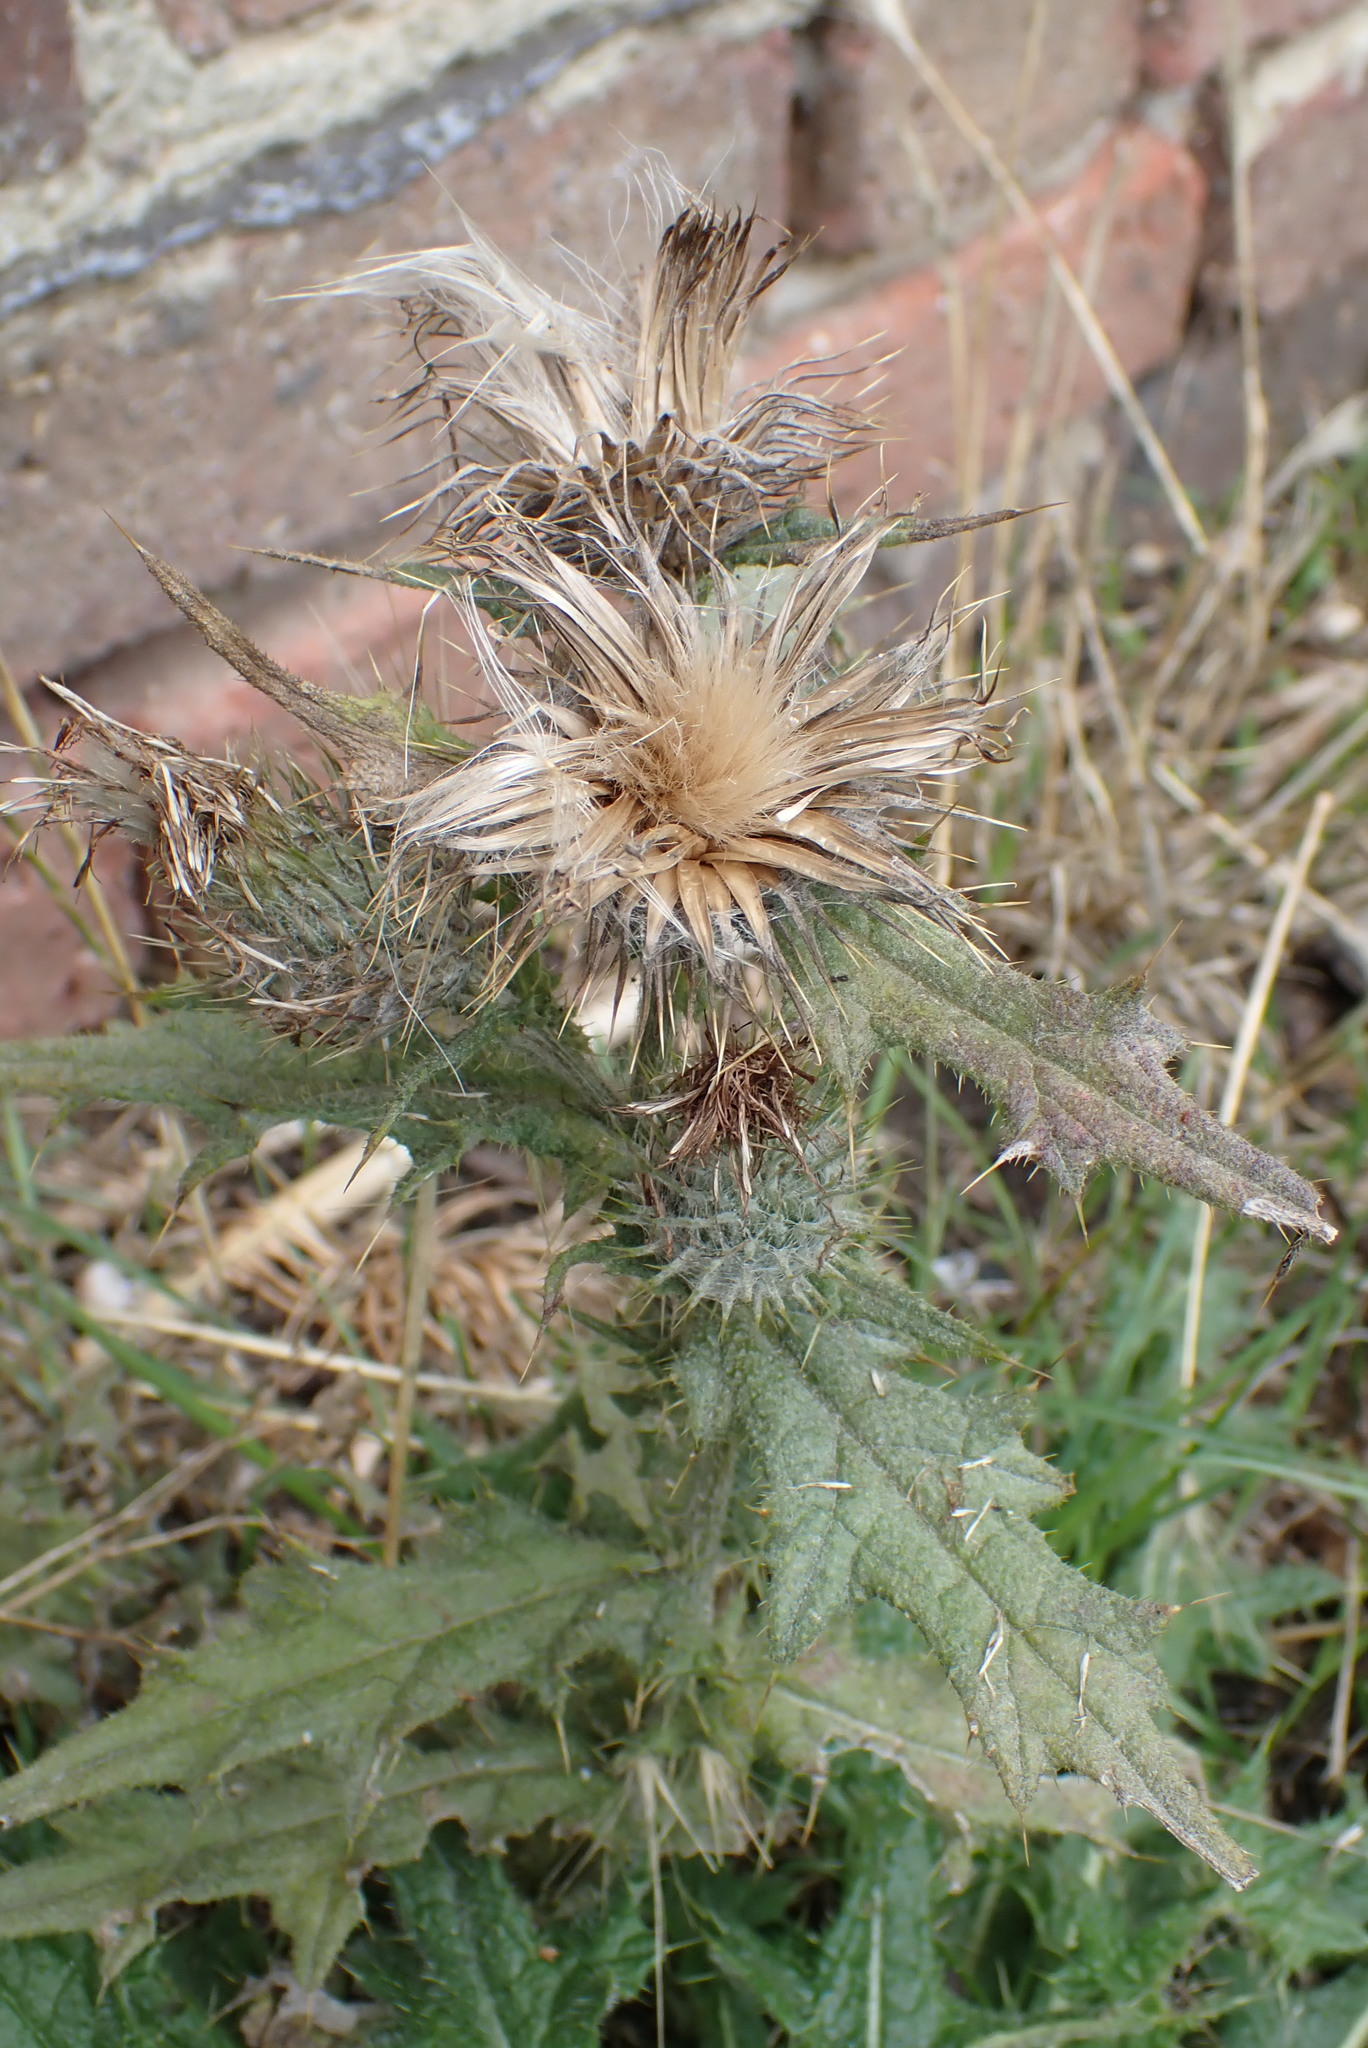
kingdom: Plantae
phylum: Tracheophyta
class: Magnoliopsida
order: Asterales
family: Asteraceae
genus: Cirsium
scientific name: Cirsium vulgare
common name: Bull thistle
